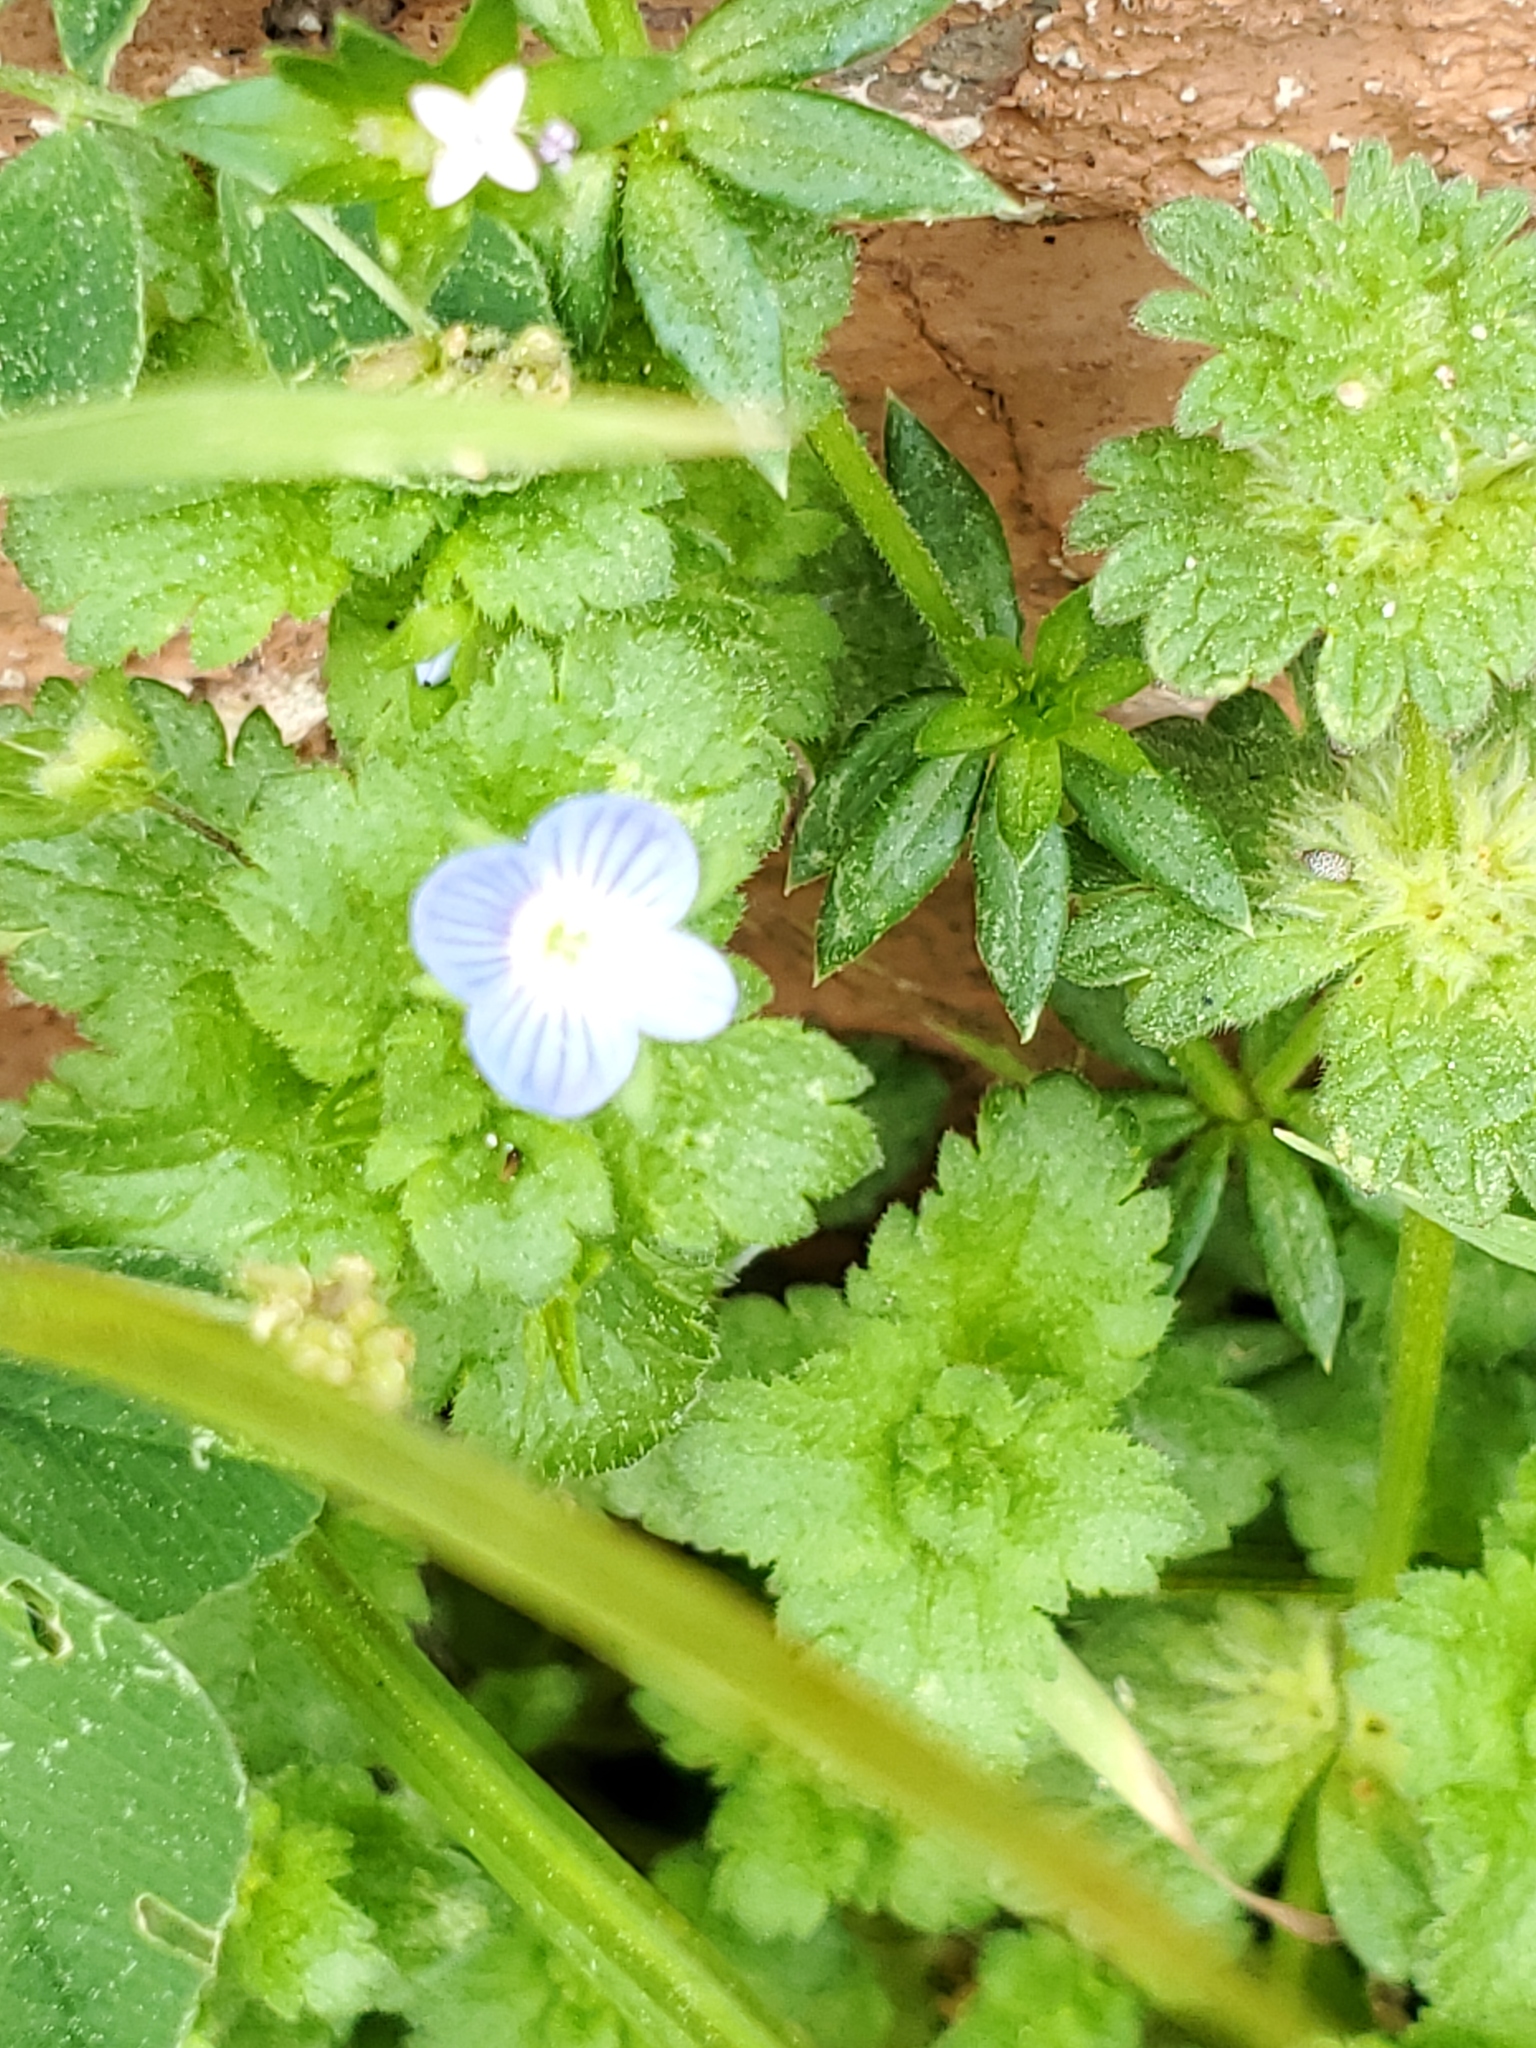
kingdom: Plantae
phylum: Tracheophyta
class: Magnoliopsida
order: Lamiales
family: Plantaginaceae
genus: Veronica
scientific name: Veronica persica
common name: Common field-speedwell
